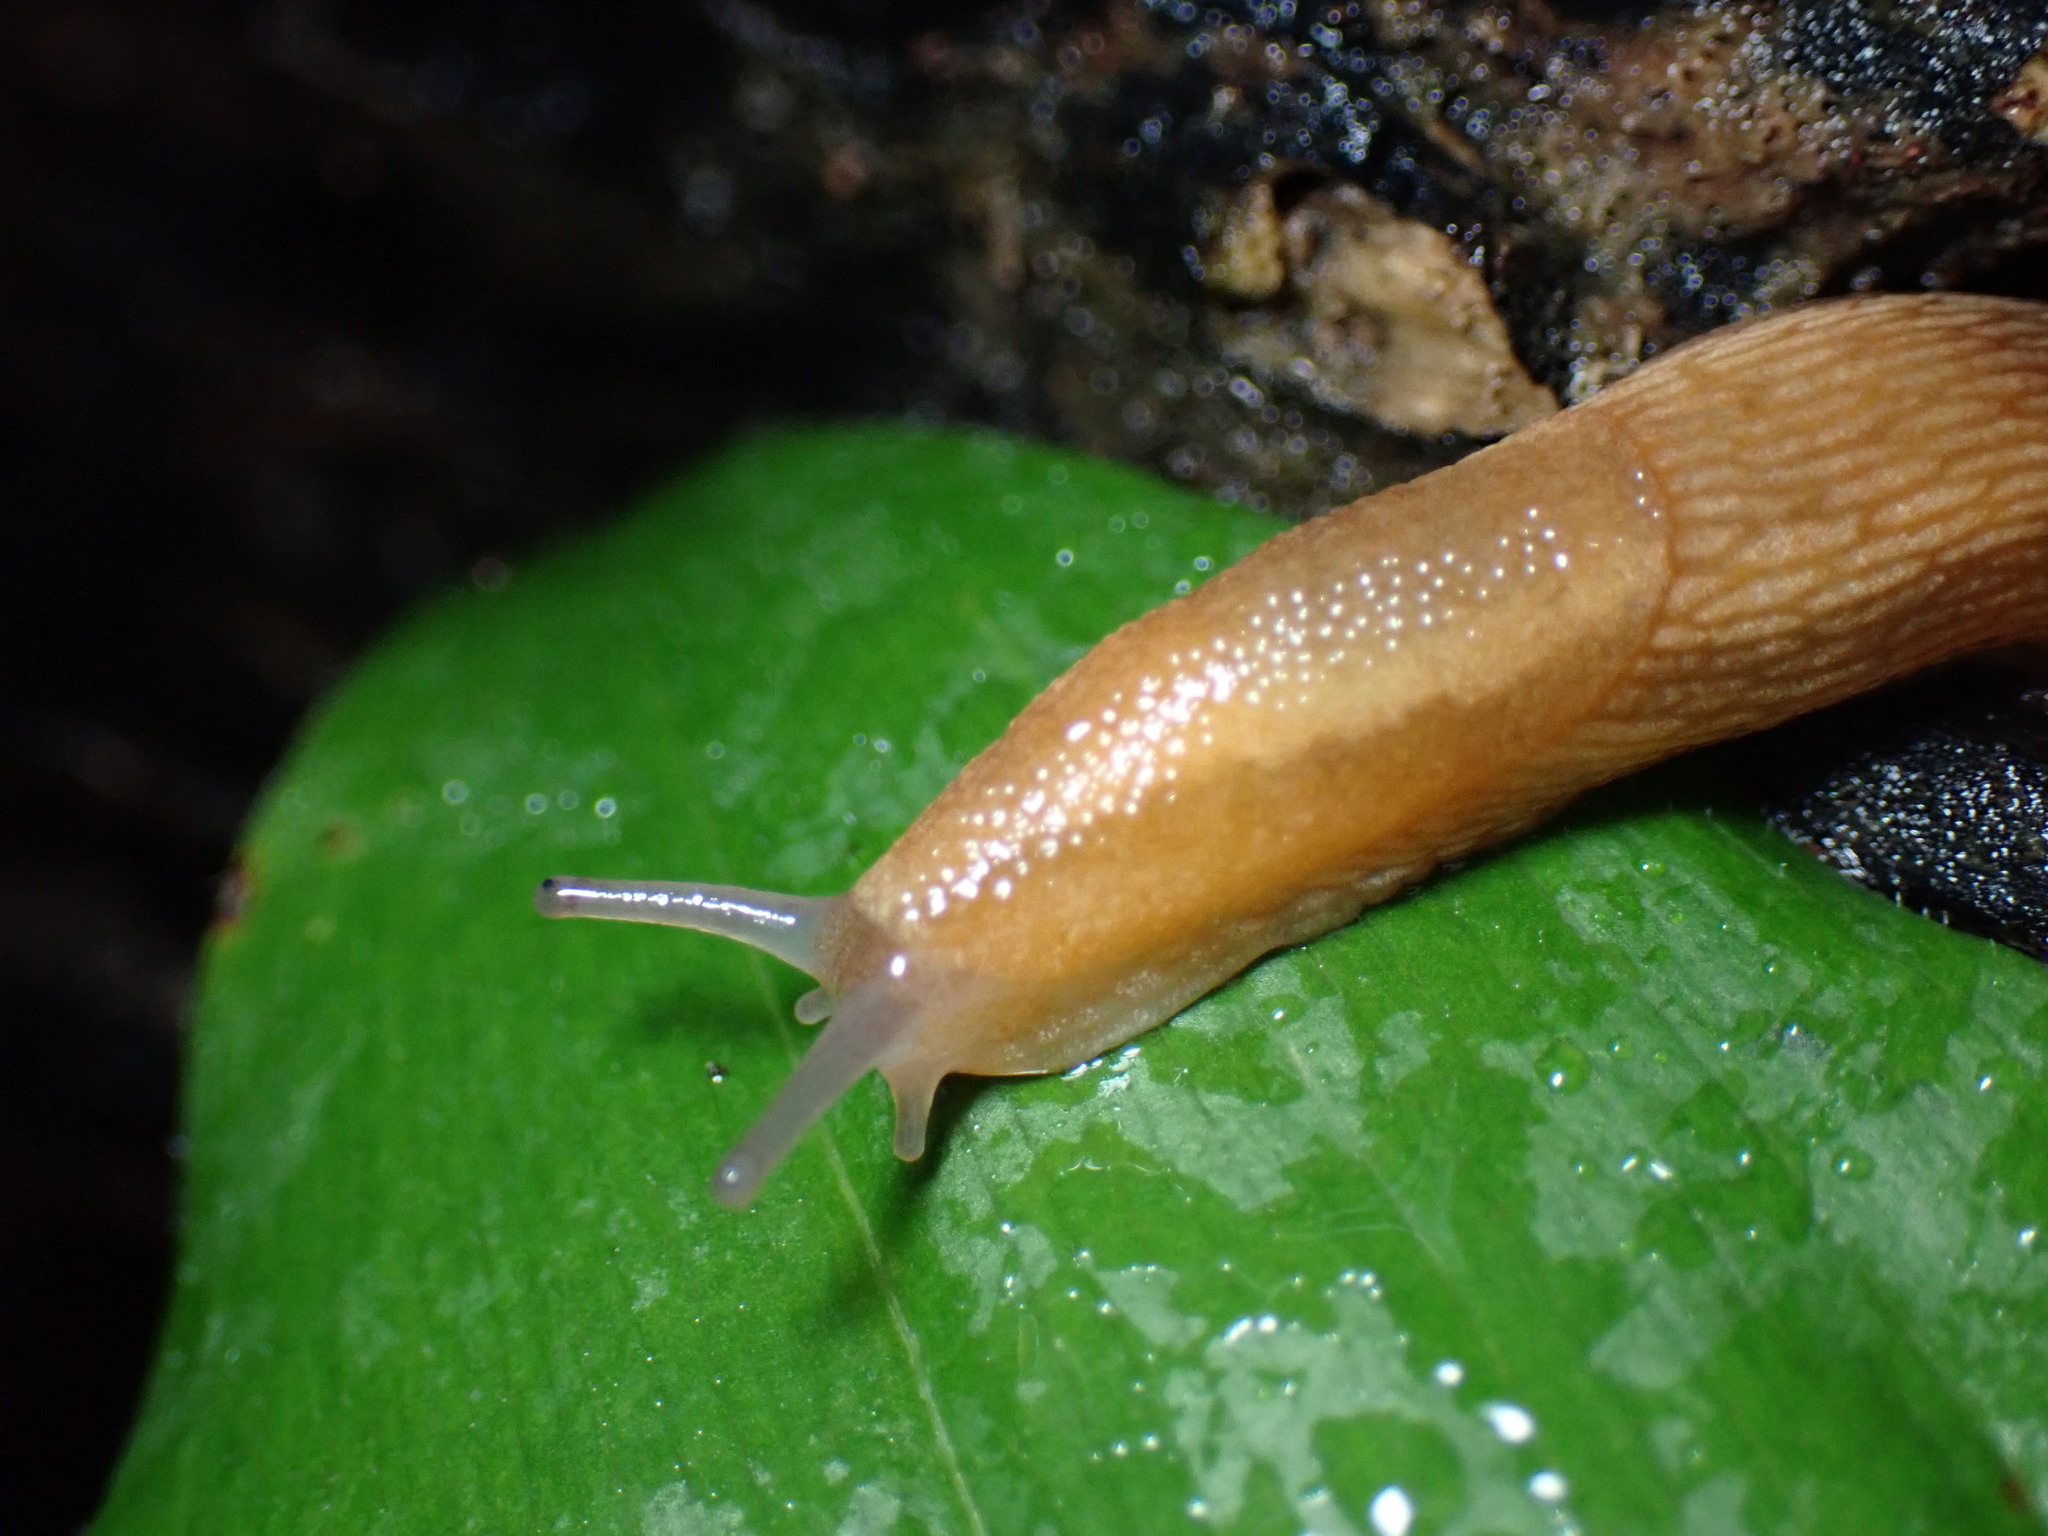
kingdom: Animalia
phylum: Mollusca
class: Gastropoda
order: Stylommatophora
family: Arionidae
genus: Arion
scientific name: Arion subfuscus
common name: Dusky arion
